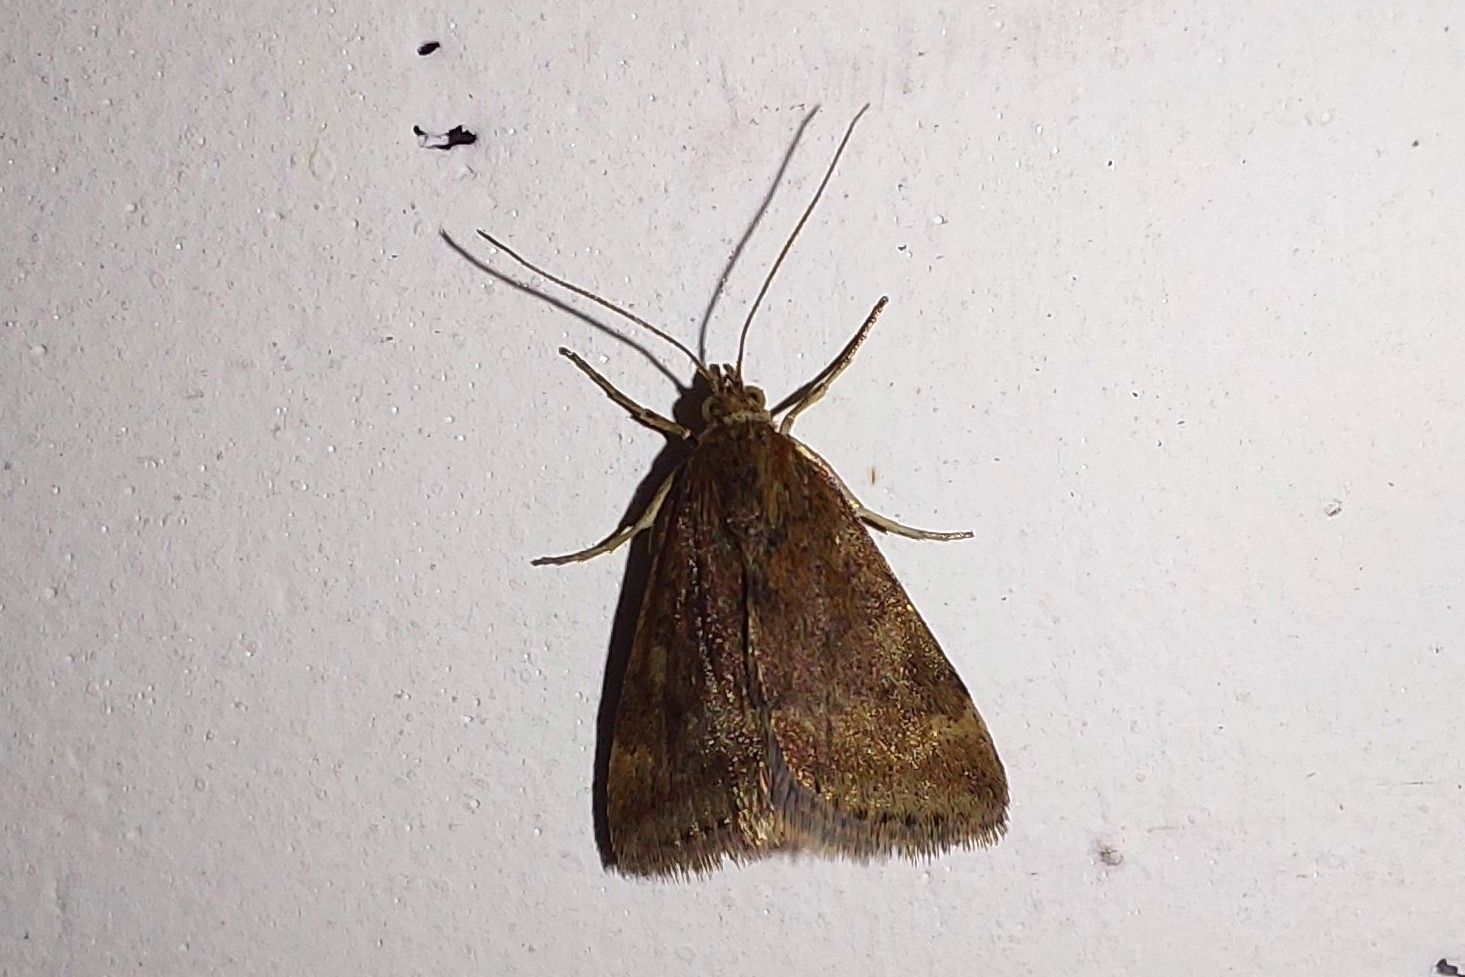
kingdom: Animalia
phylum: Arthropoda
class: Insecta
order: Lepidoptera
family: Crambidae
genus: Pyrausta
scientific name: Pyrausta despicata
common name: Straw-barred pearl
